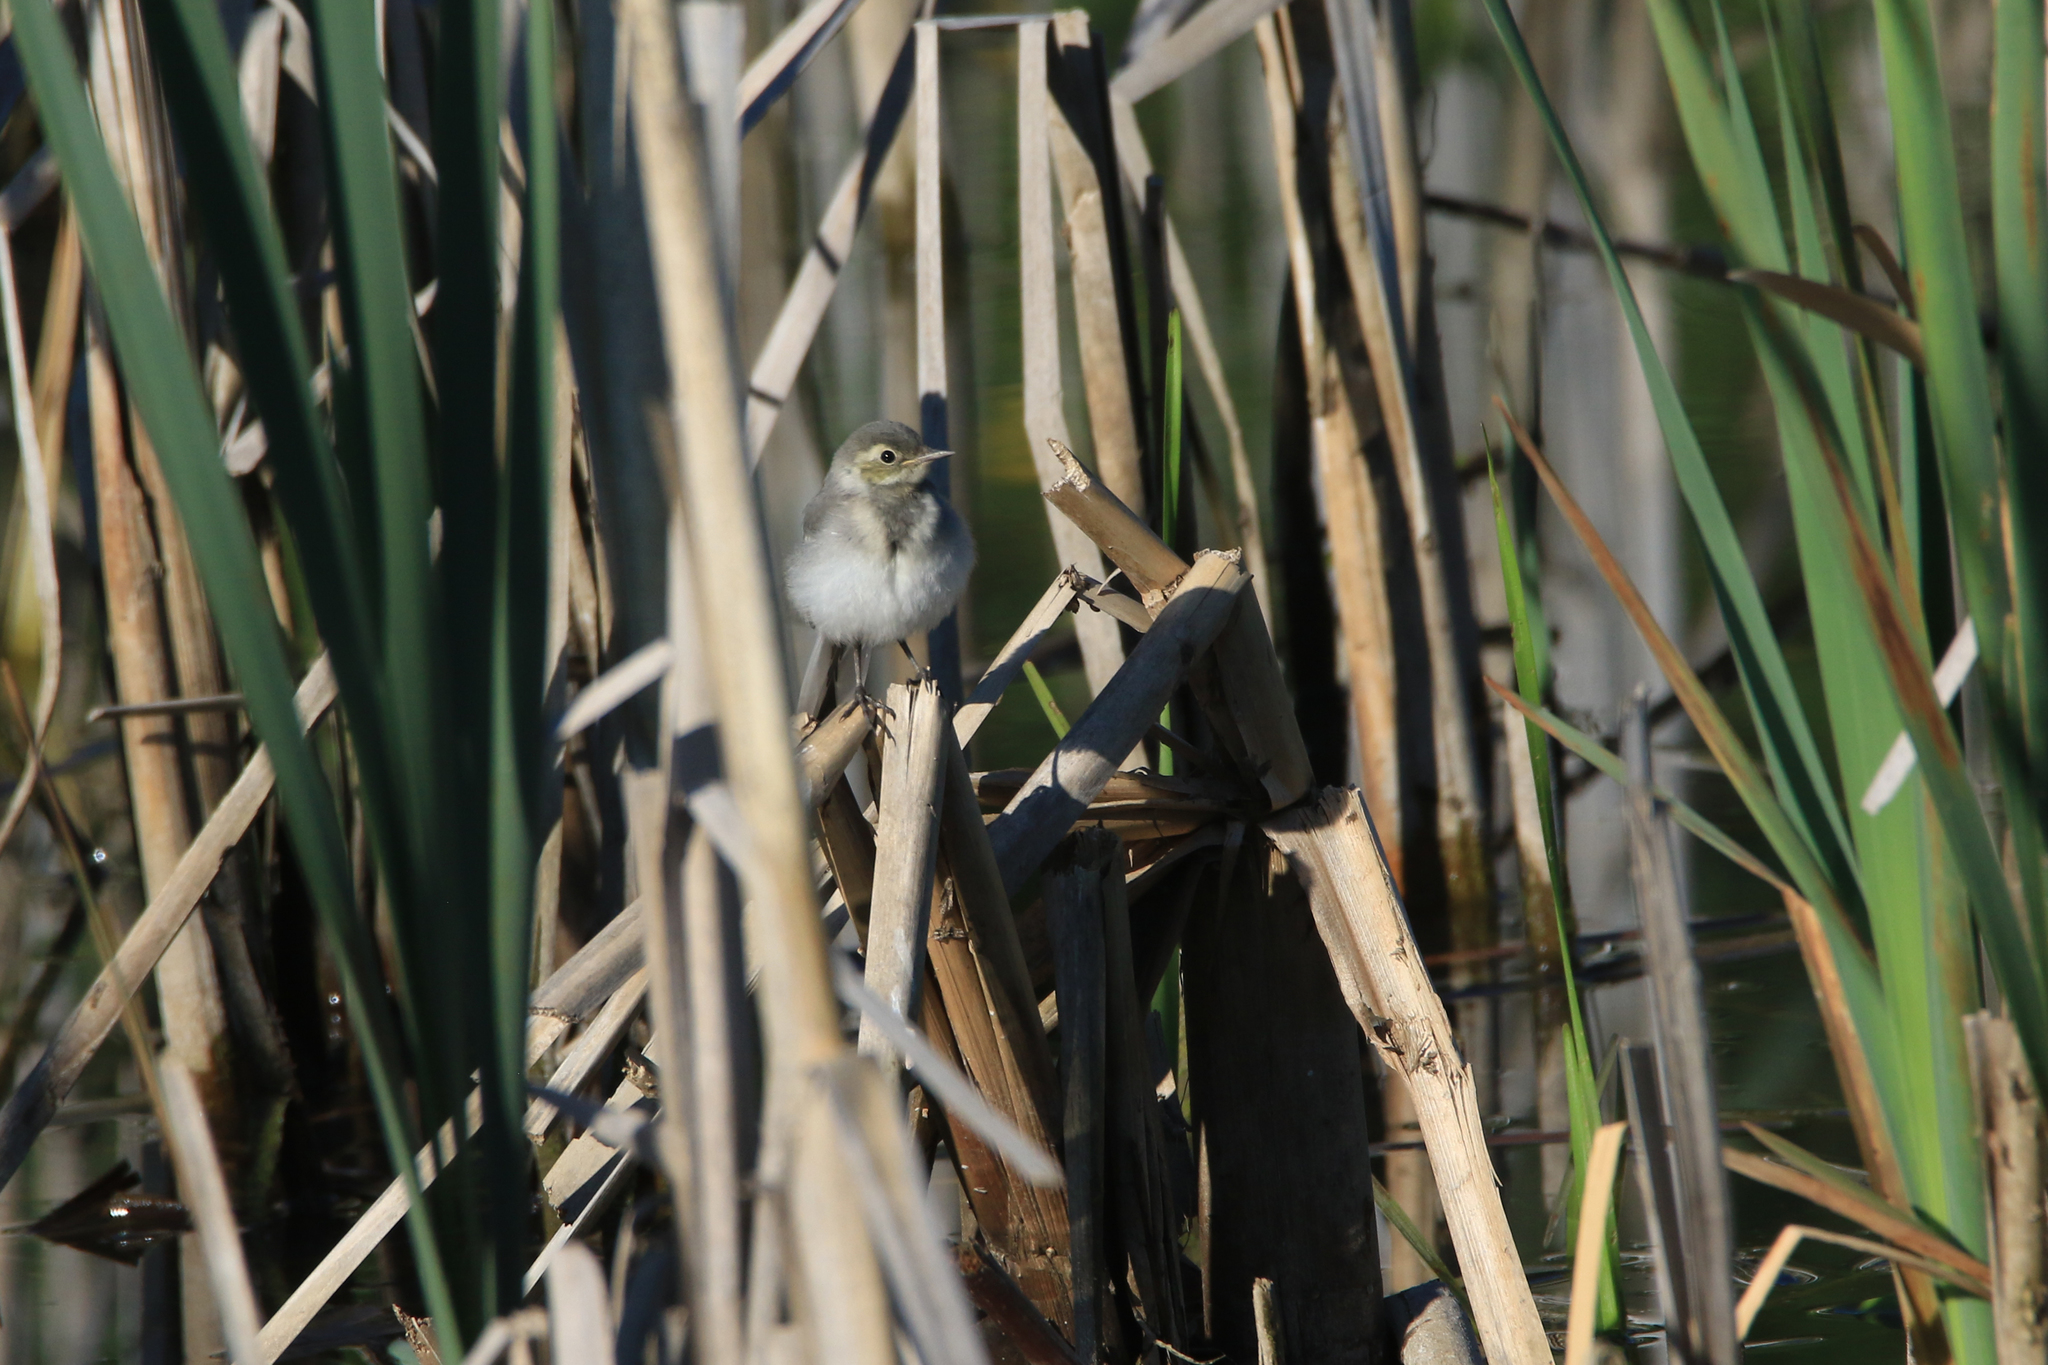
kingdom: Animalia
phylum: Chordata
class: Aves
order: Passeriformes
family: Motacillidae
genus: Motacilla
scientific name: Motacilla alba
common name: White wagtail
